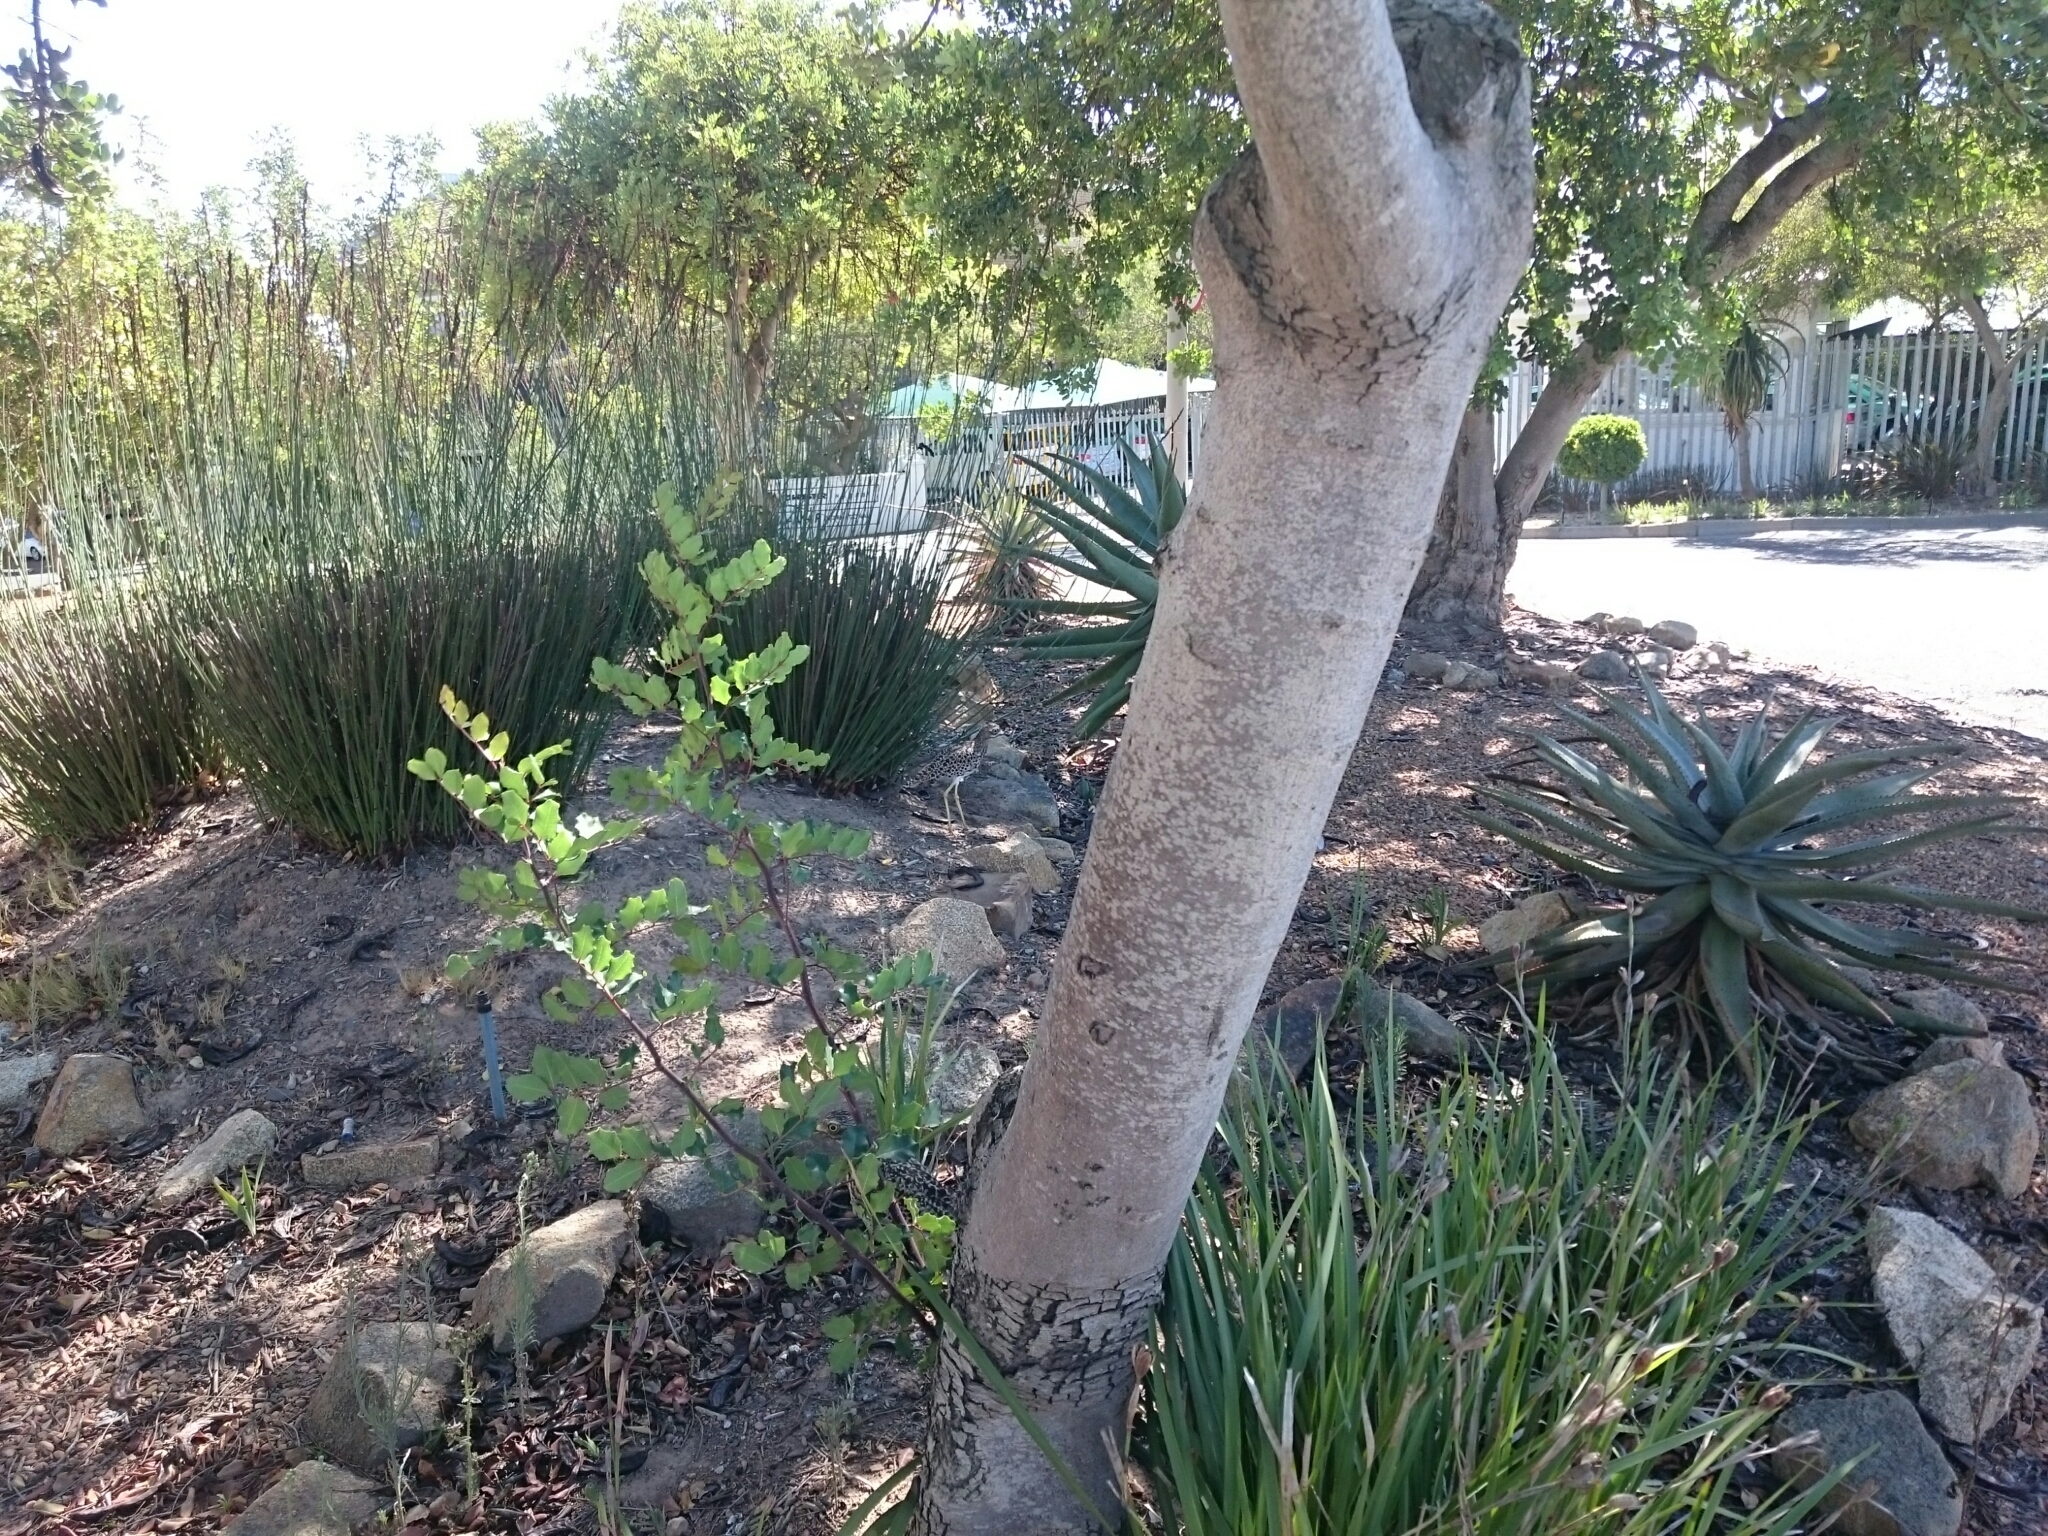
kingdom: Animalia
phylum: Chordata
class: Aves
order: Charadriiformes
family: Burhinidae
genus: Burhinus
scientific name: Burhinus capensis
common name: Spotted thick-knee
